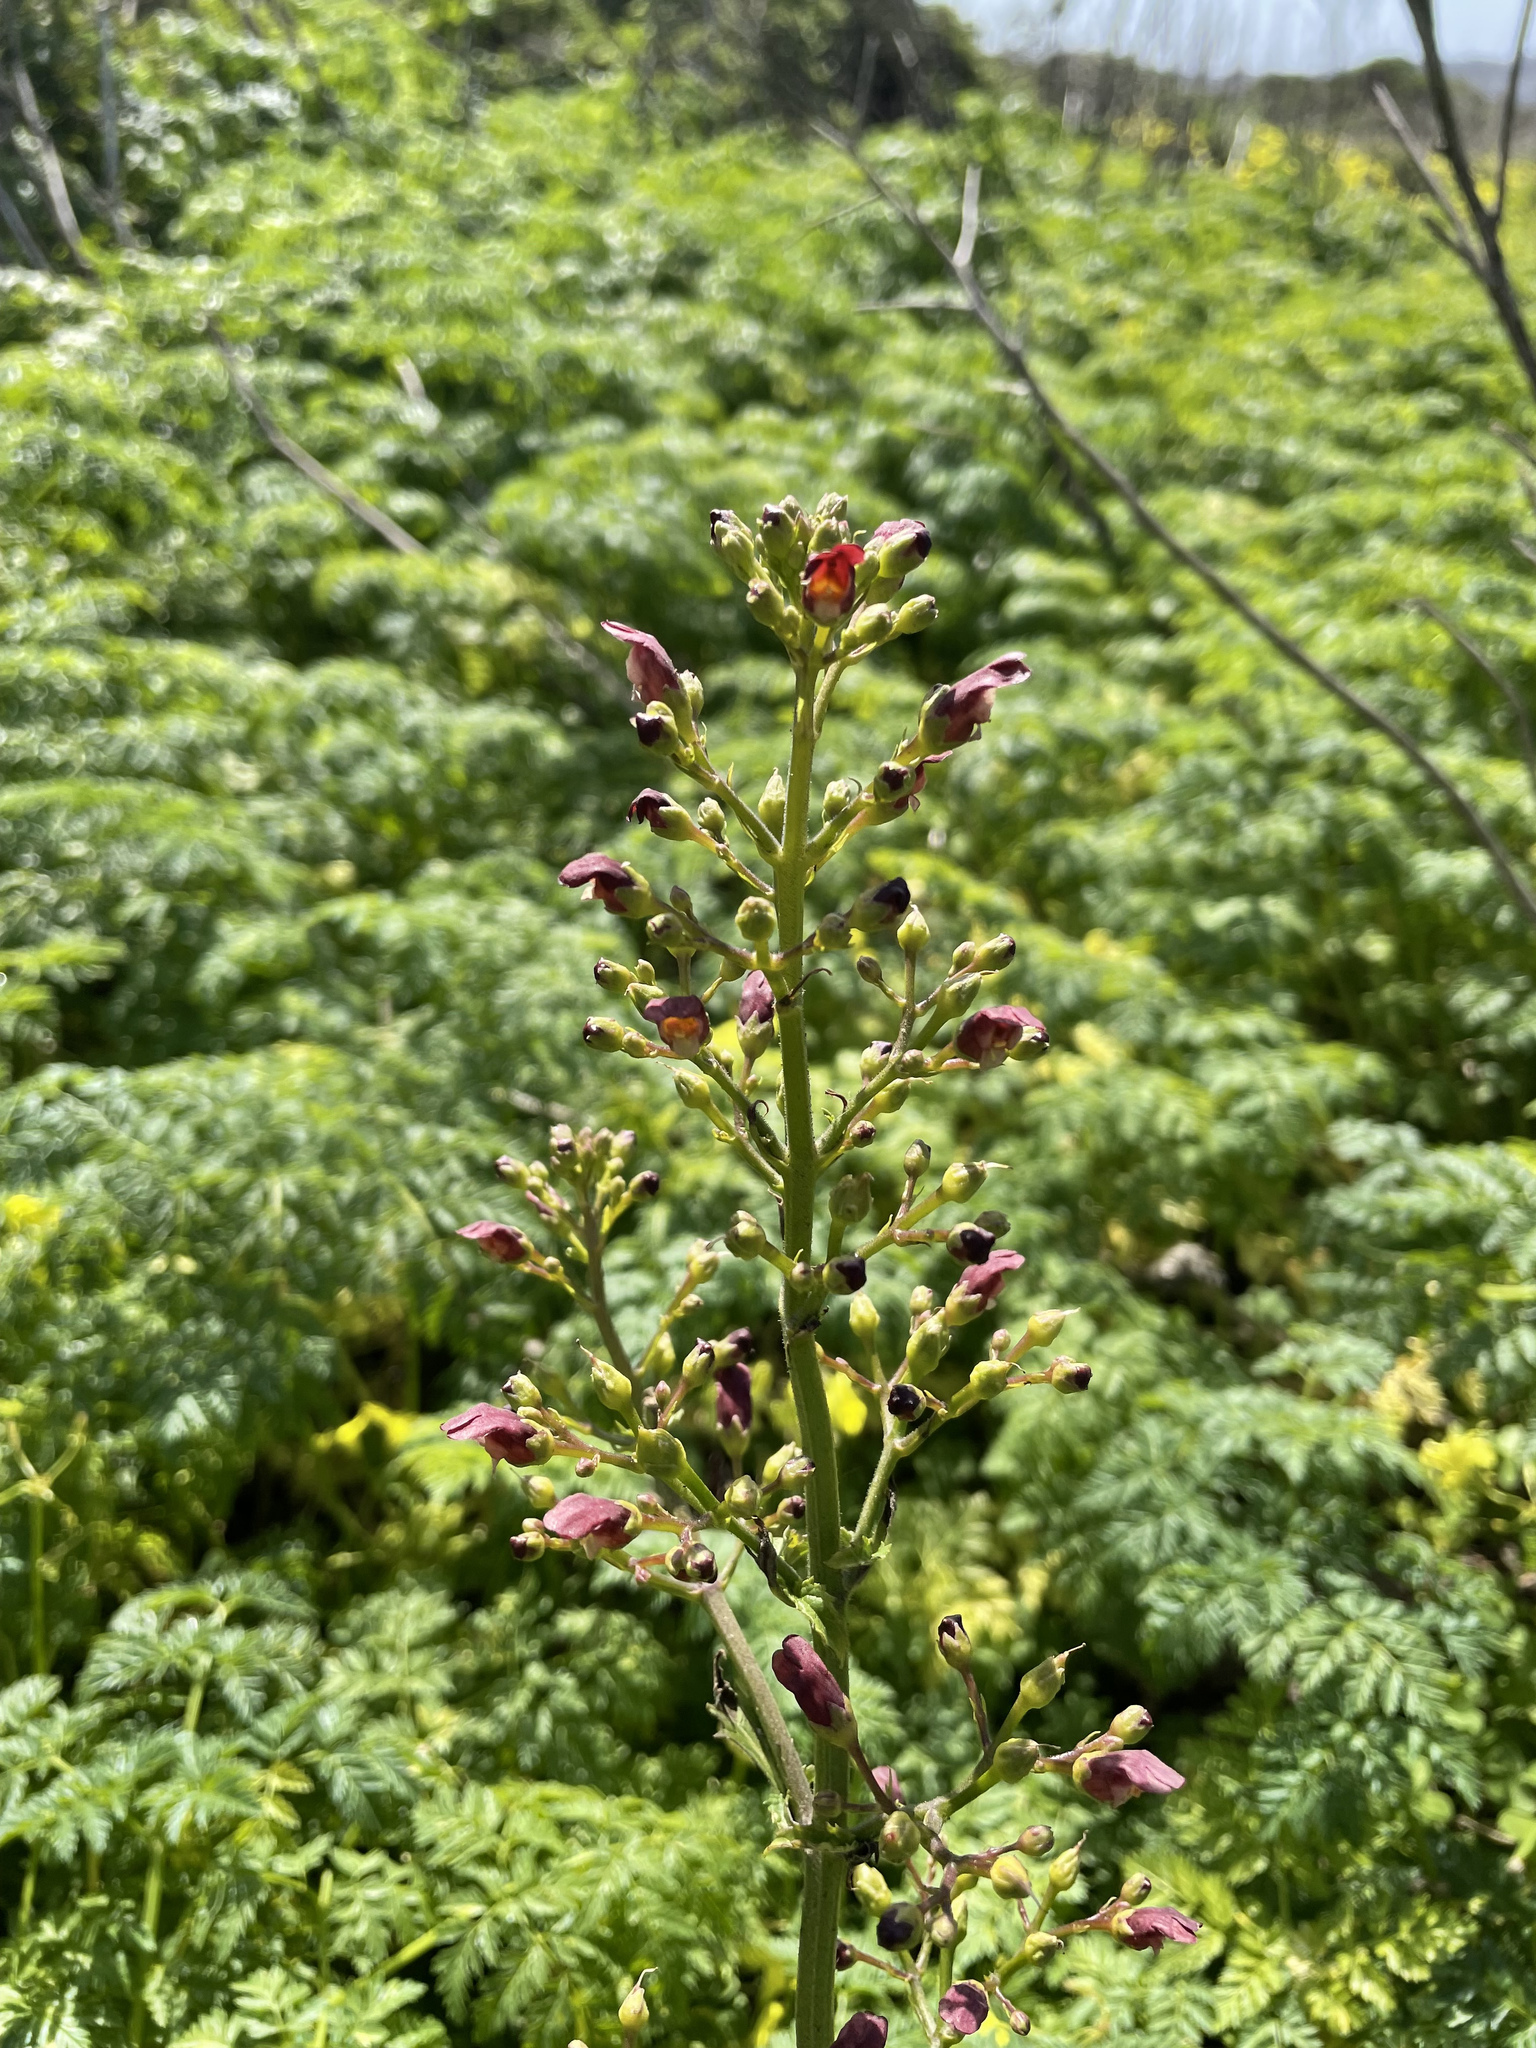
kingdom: Plantae
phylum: Tracheophyta
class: Magnoliopsida
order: Lamiales
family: Scrophulariaceae
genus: Scrophularia
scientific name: Scrophularia californica
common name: California figwort
